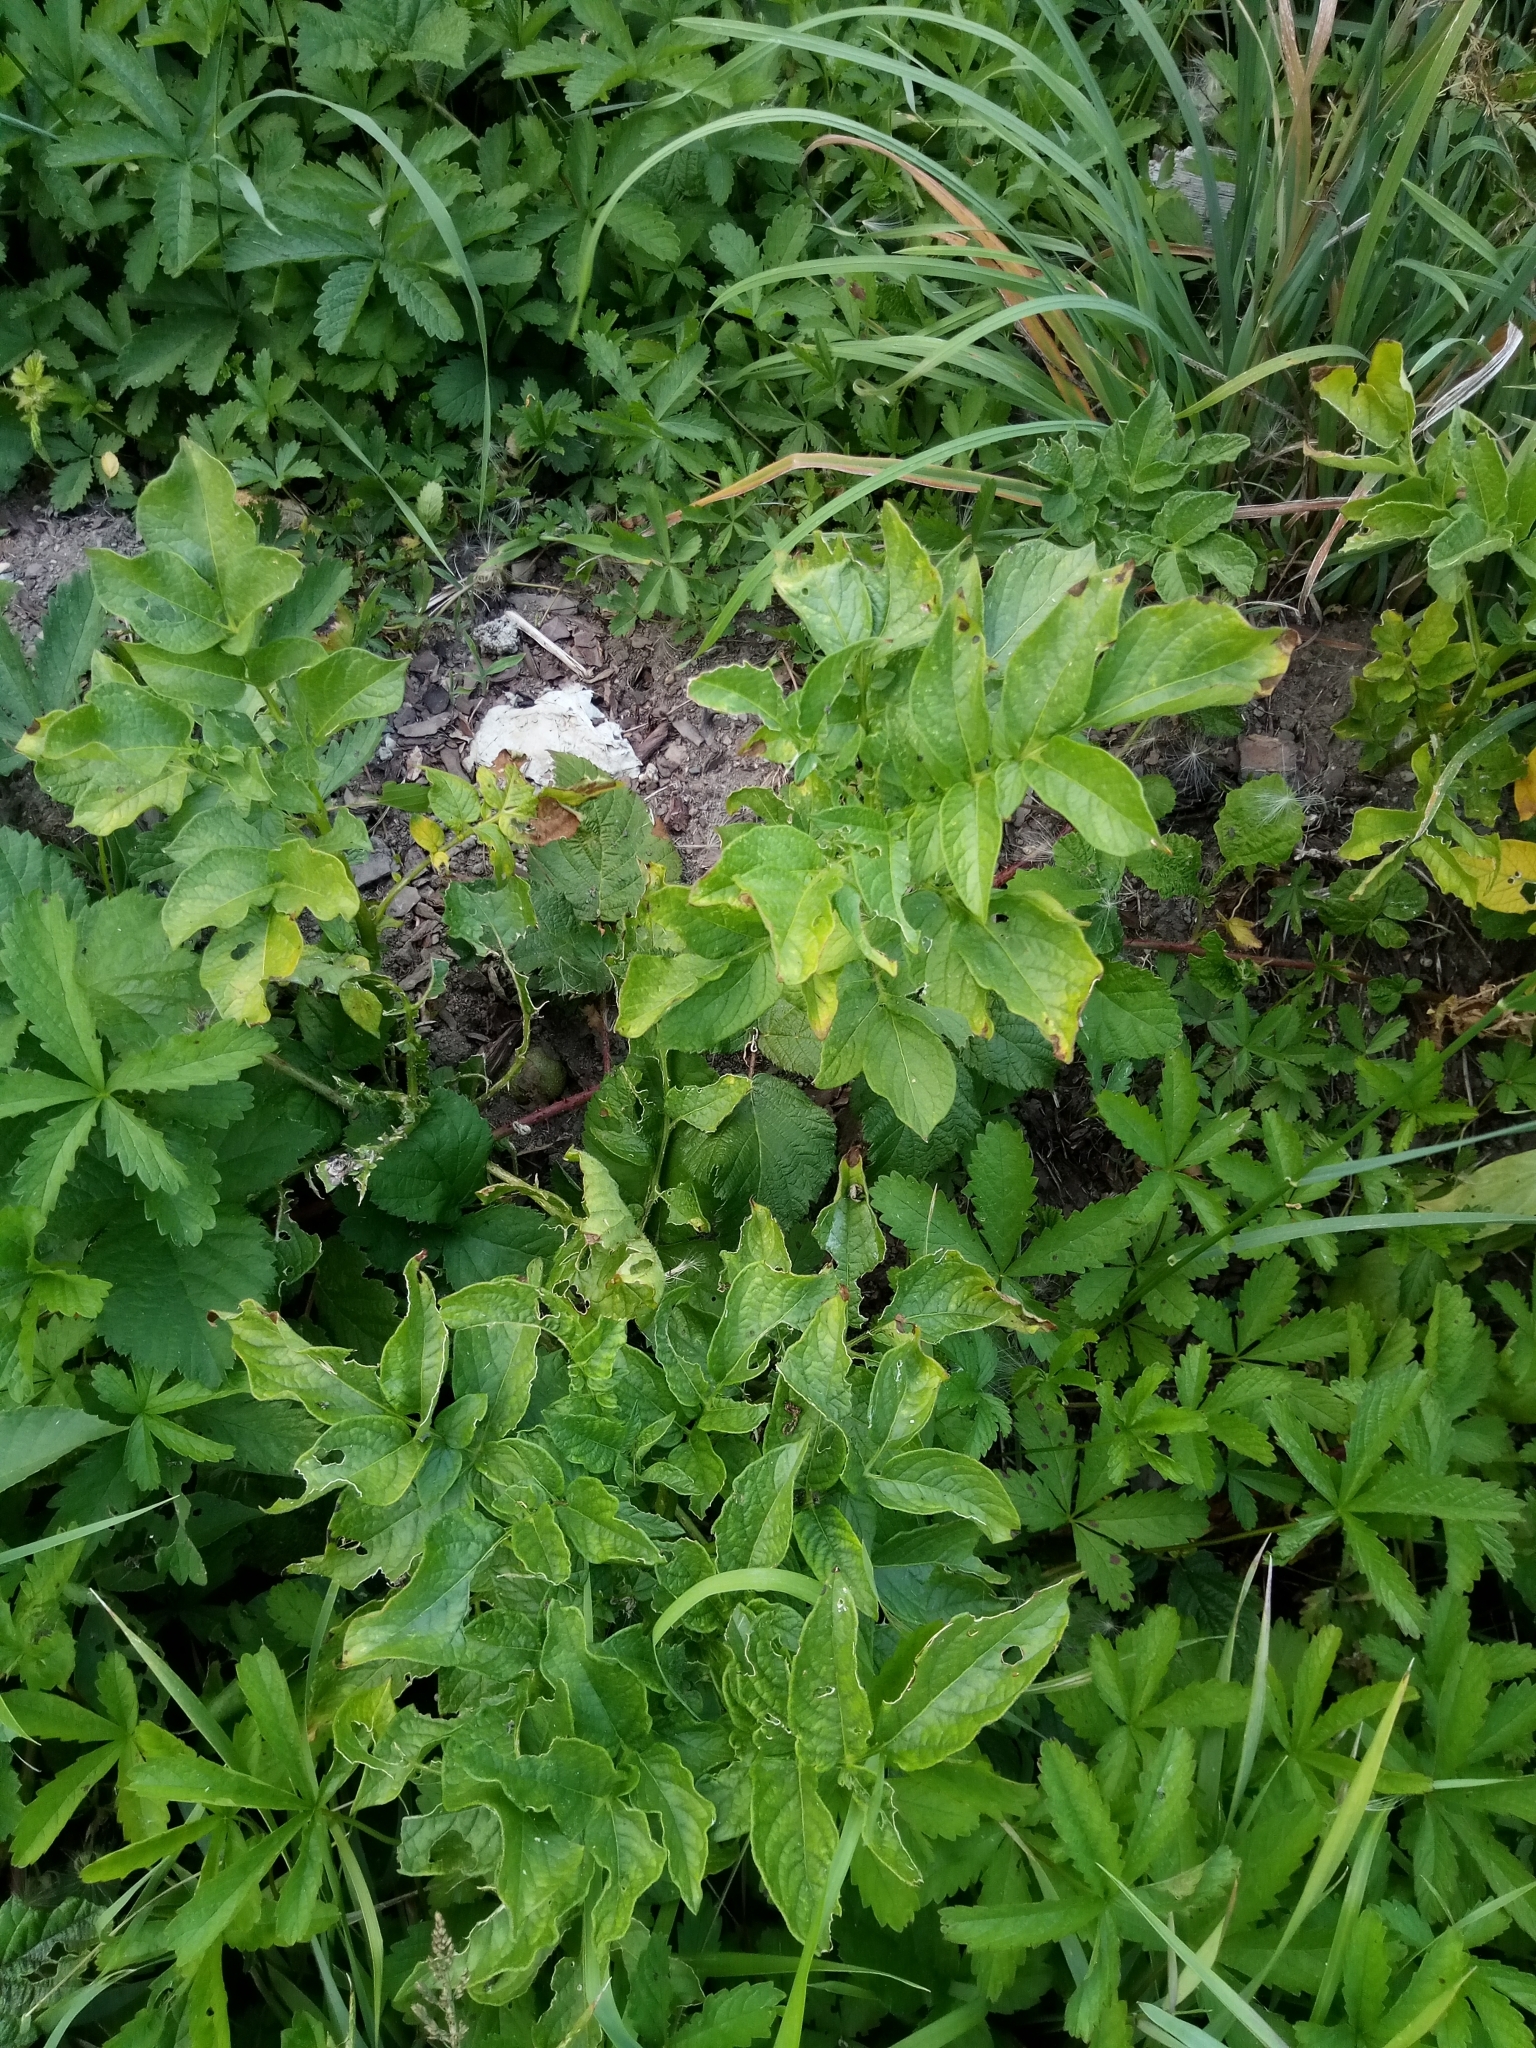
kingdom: Plantae
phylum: Tracheophyta
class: Magnoliopsida
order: Solanales
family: Solanaceae
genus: Solanum
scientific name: Solanum tuberosum
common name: Potato
